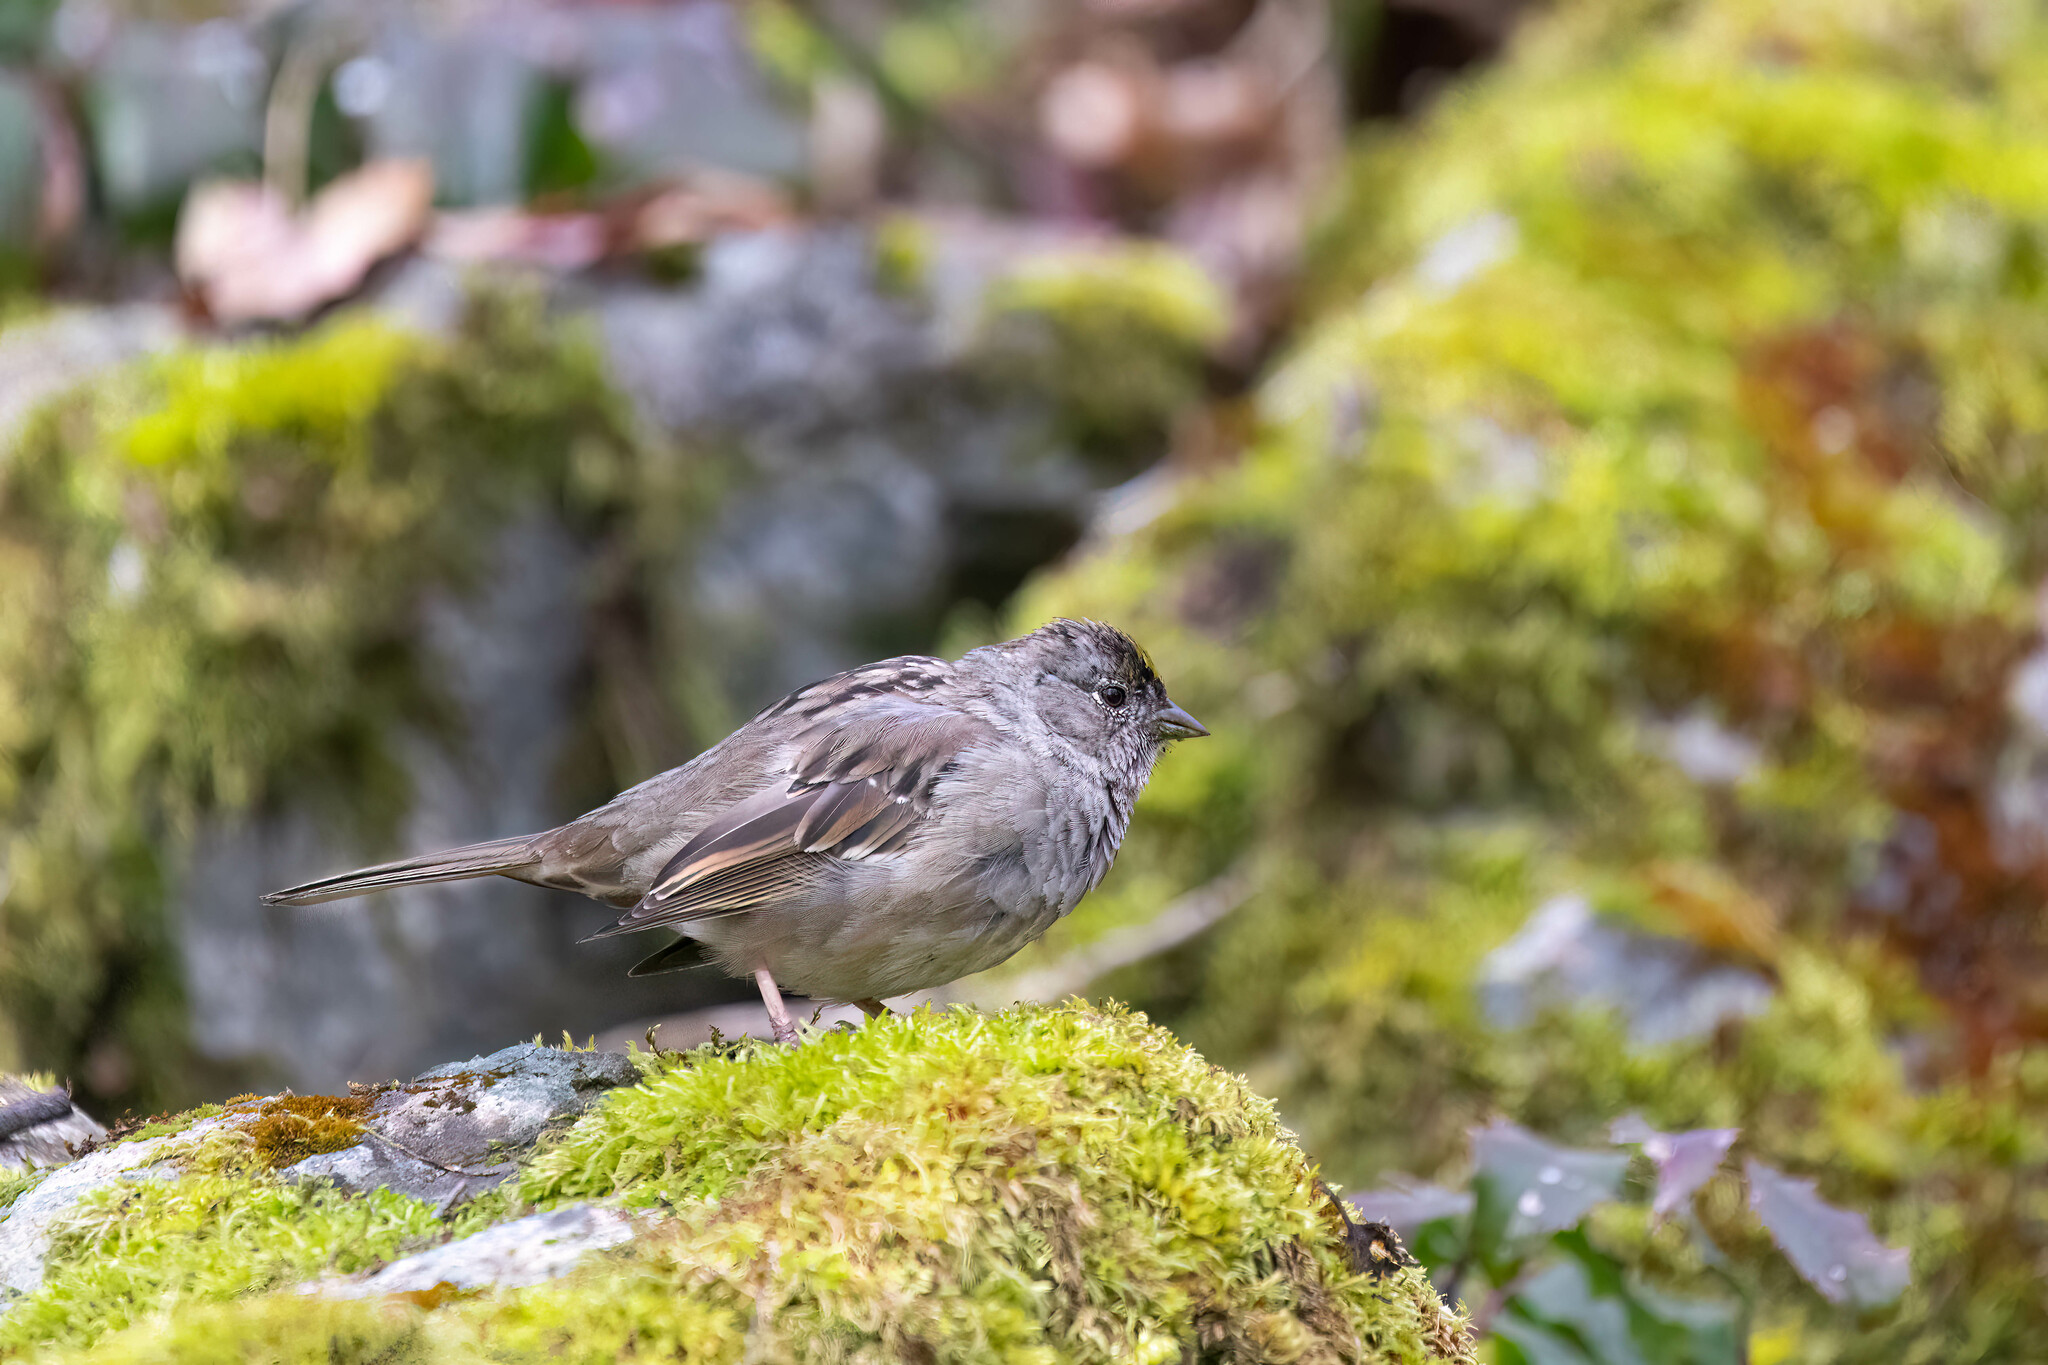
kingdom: Animalia
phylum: Chordata
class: Aves
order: Passeriformes
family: Passerellidae
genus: Zonotrichia
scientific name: Zonotrichia atricapilla
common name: Golden-crowned sparrow
